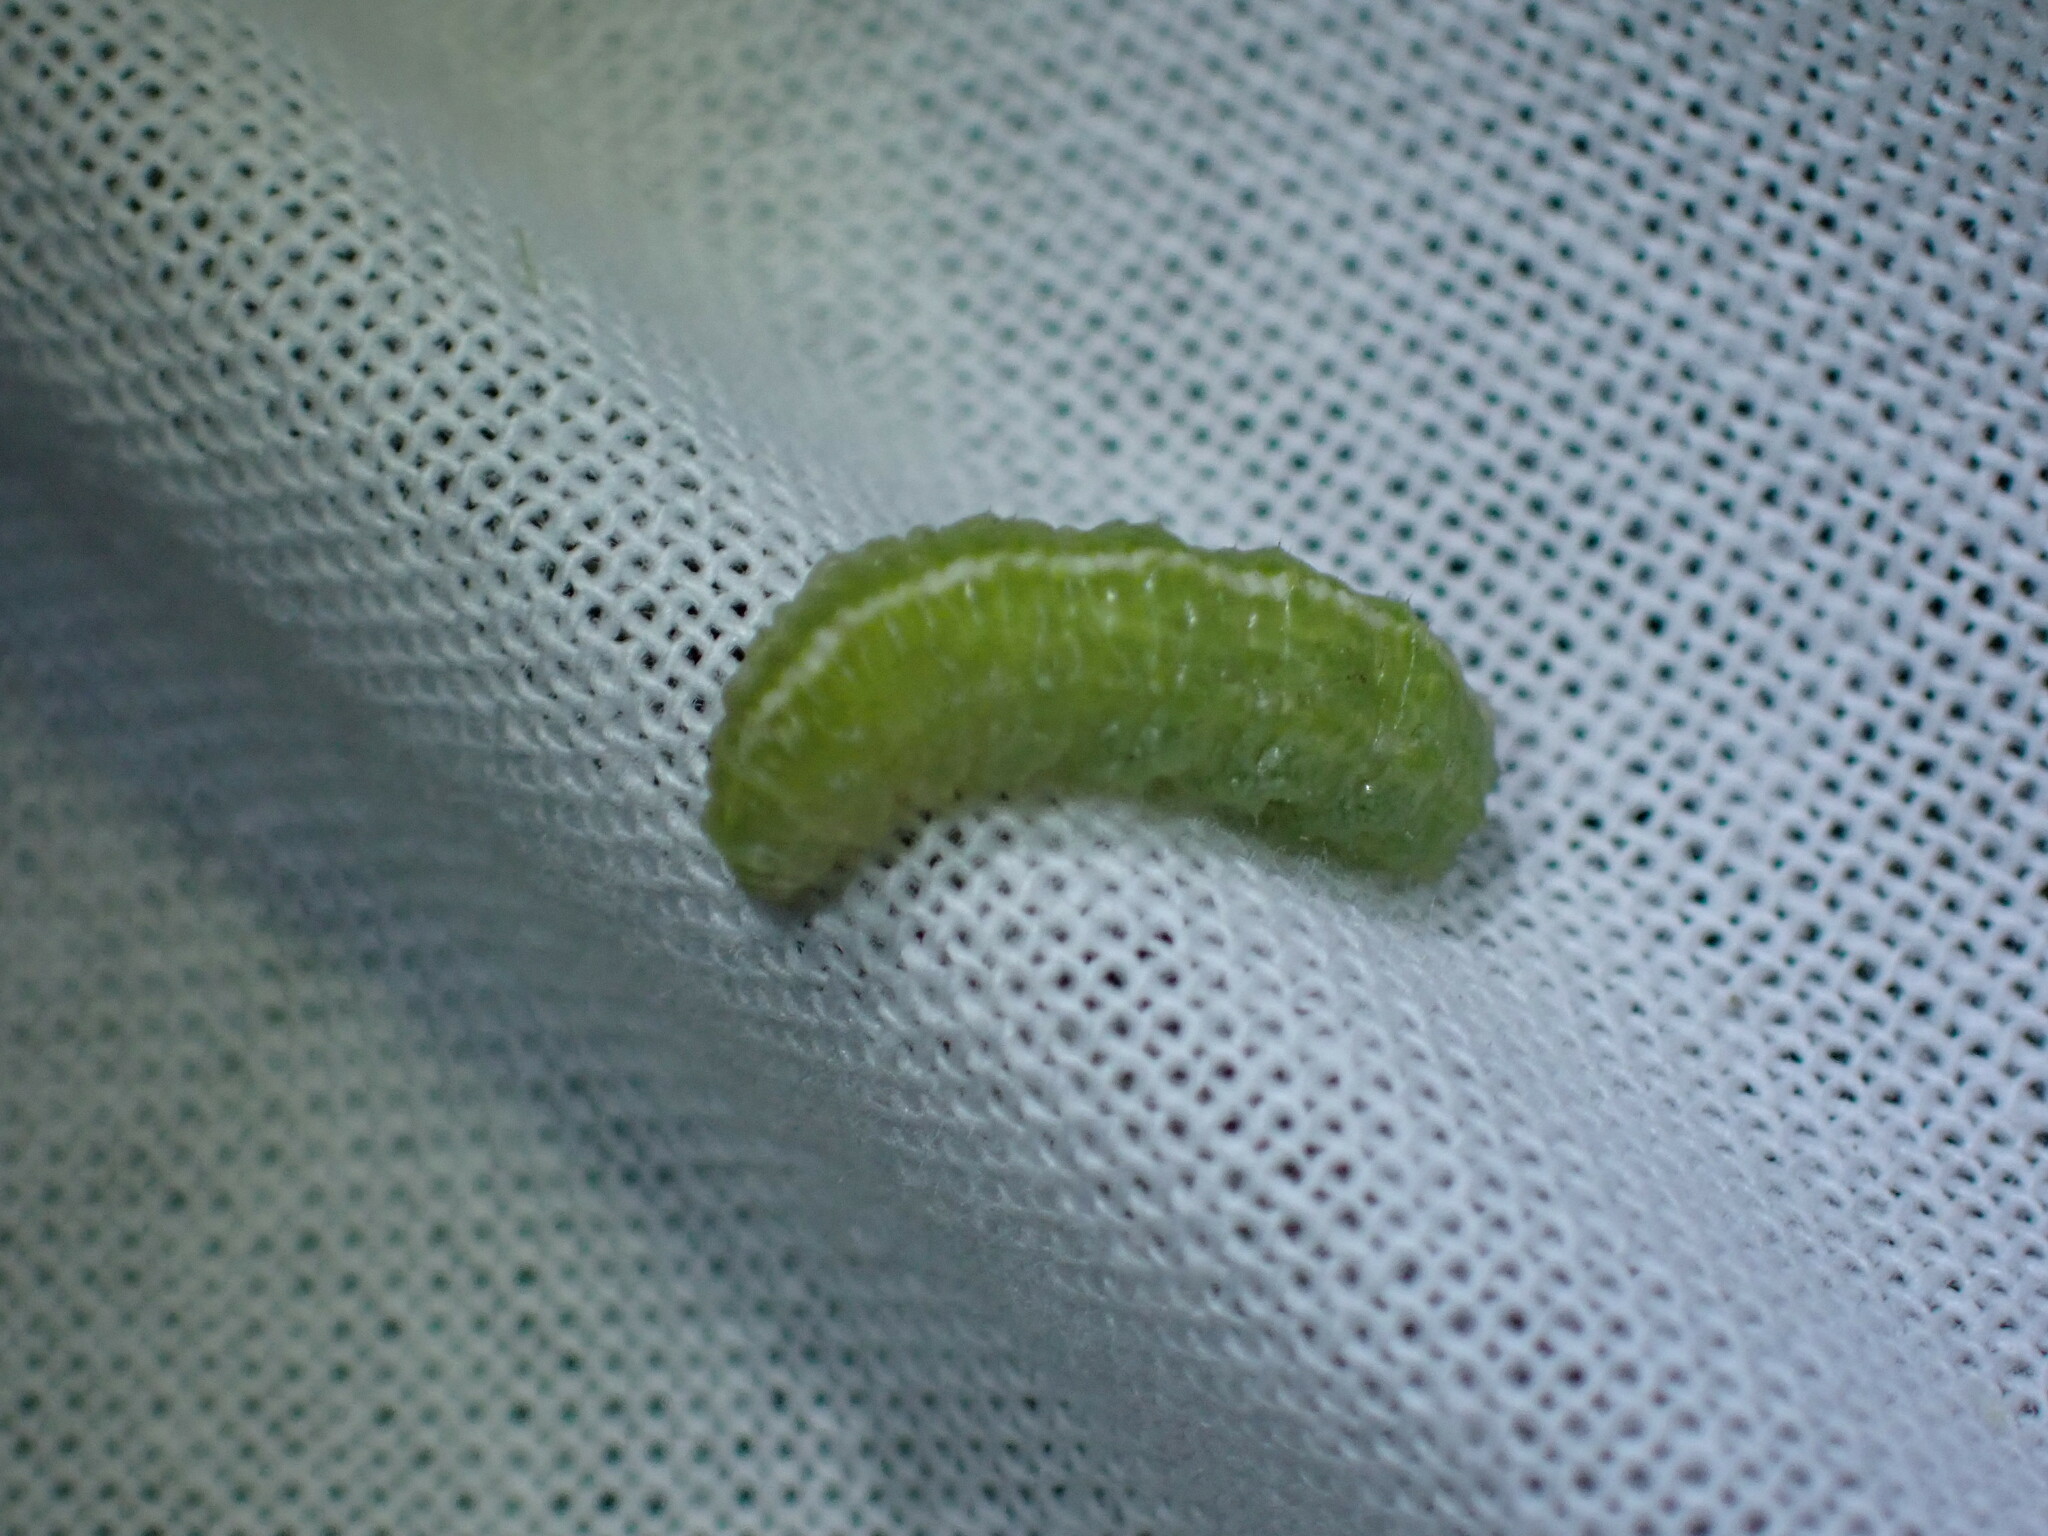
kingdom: Animalia
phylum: Arthropoda
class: Insecta
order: Diptera
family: Syrphidae
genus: Scaeva
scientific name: Scaeva affinis
